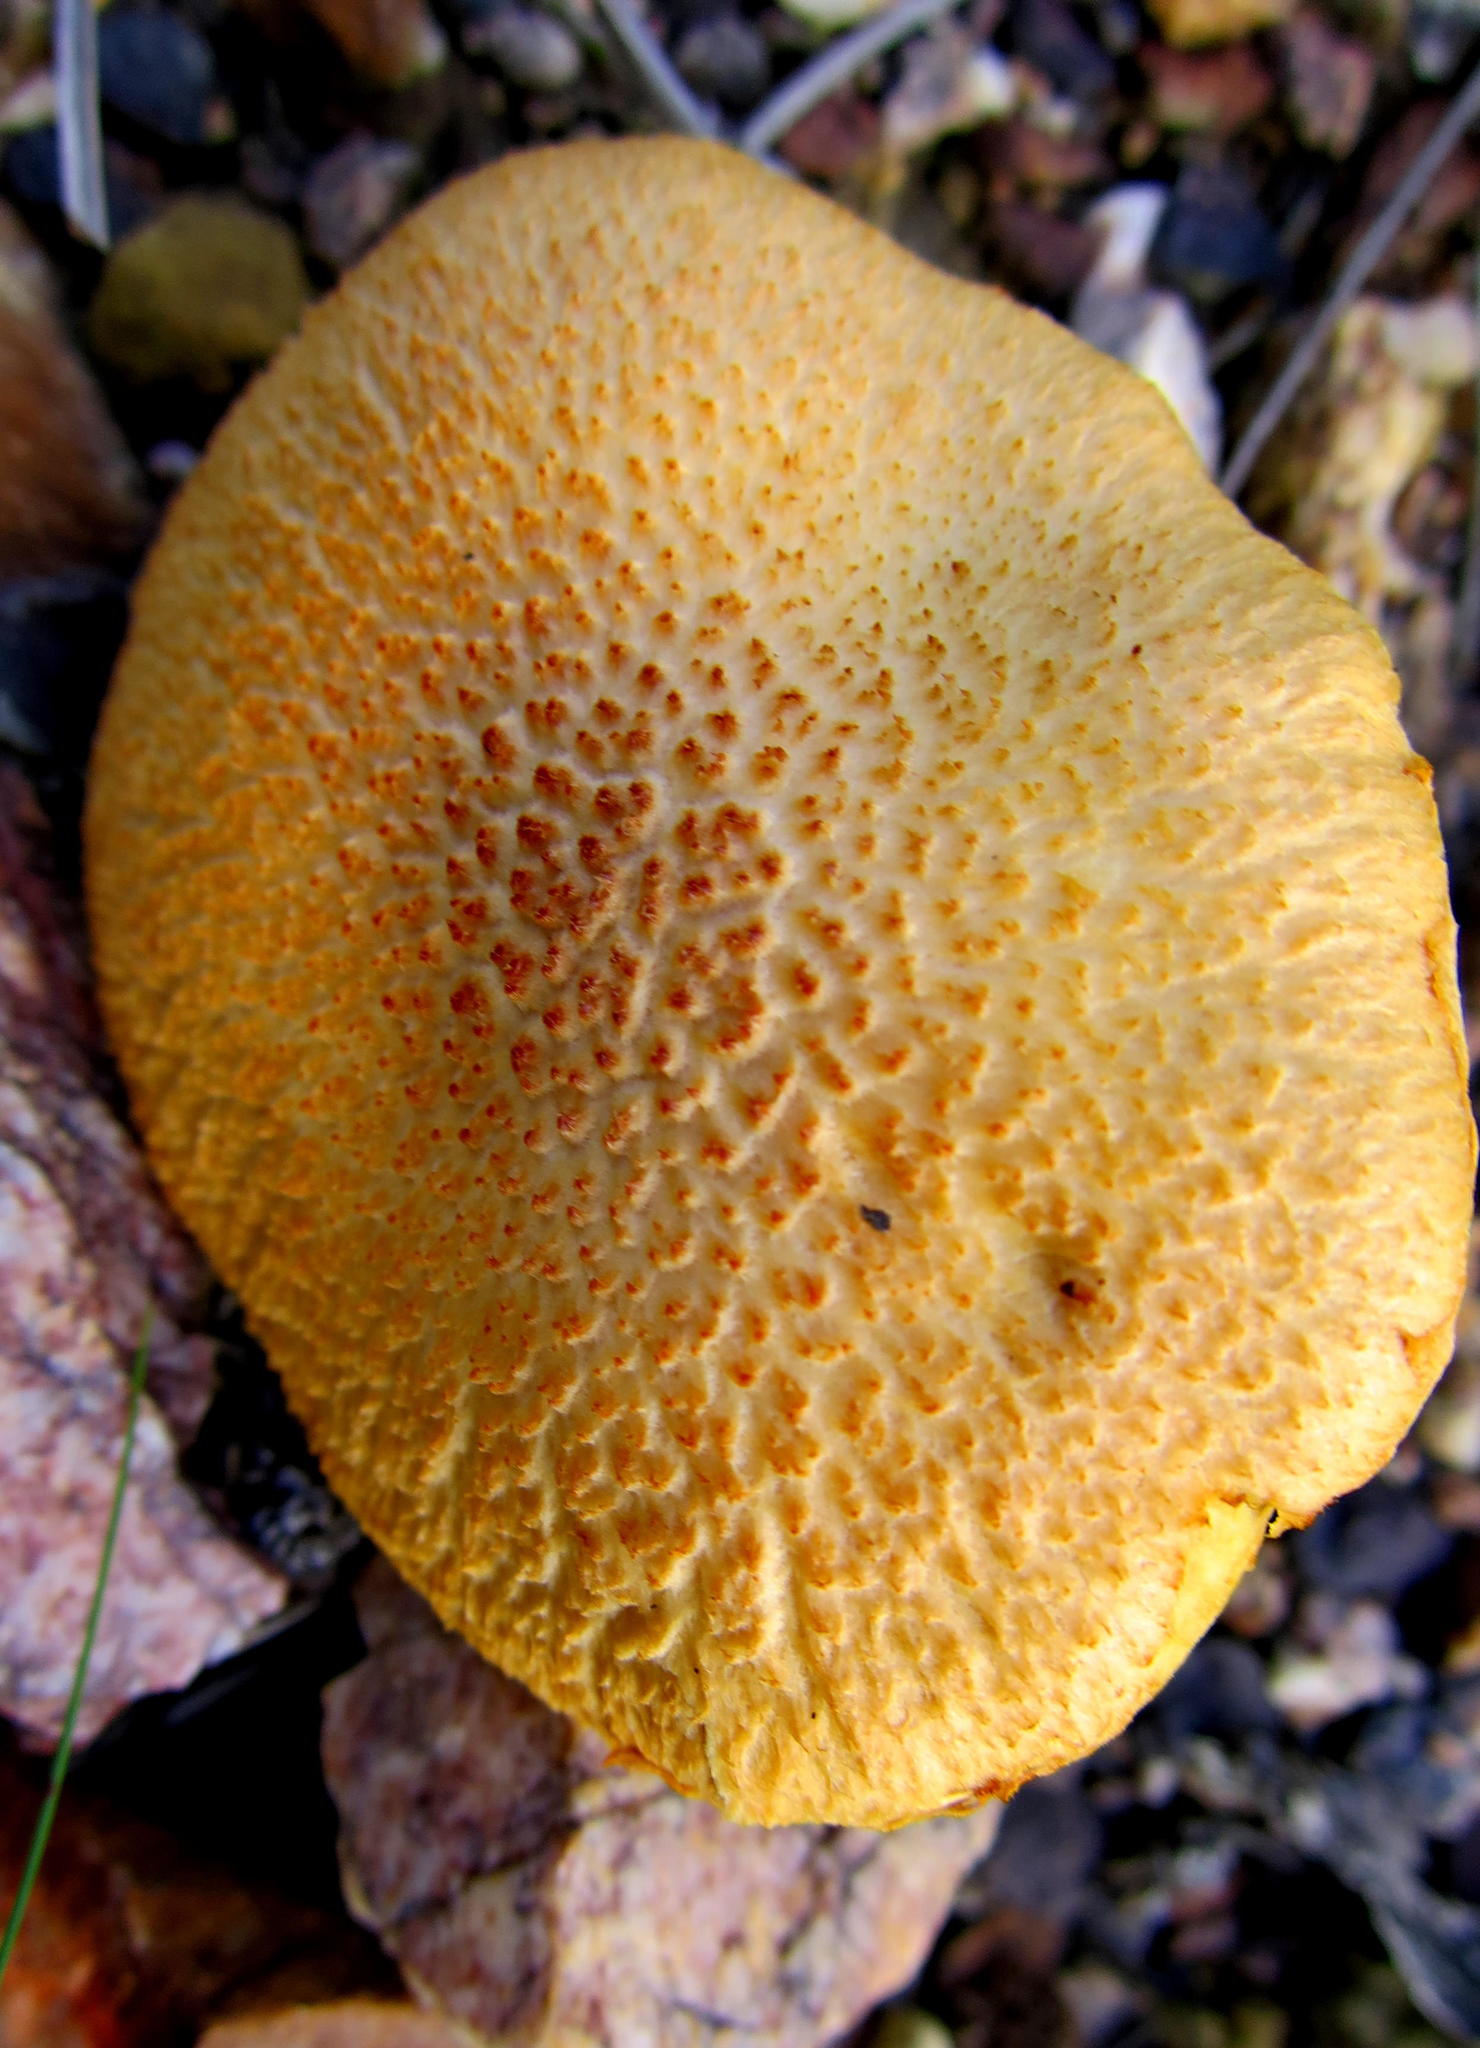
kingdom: Fungi
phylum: Basidiomycota
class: Agaricomycetes
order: Agaricales
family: Hymenogastraceae
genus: Gymnopilus
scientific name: Gymnopilus junonius
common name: Spectacular rustgill
